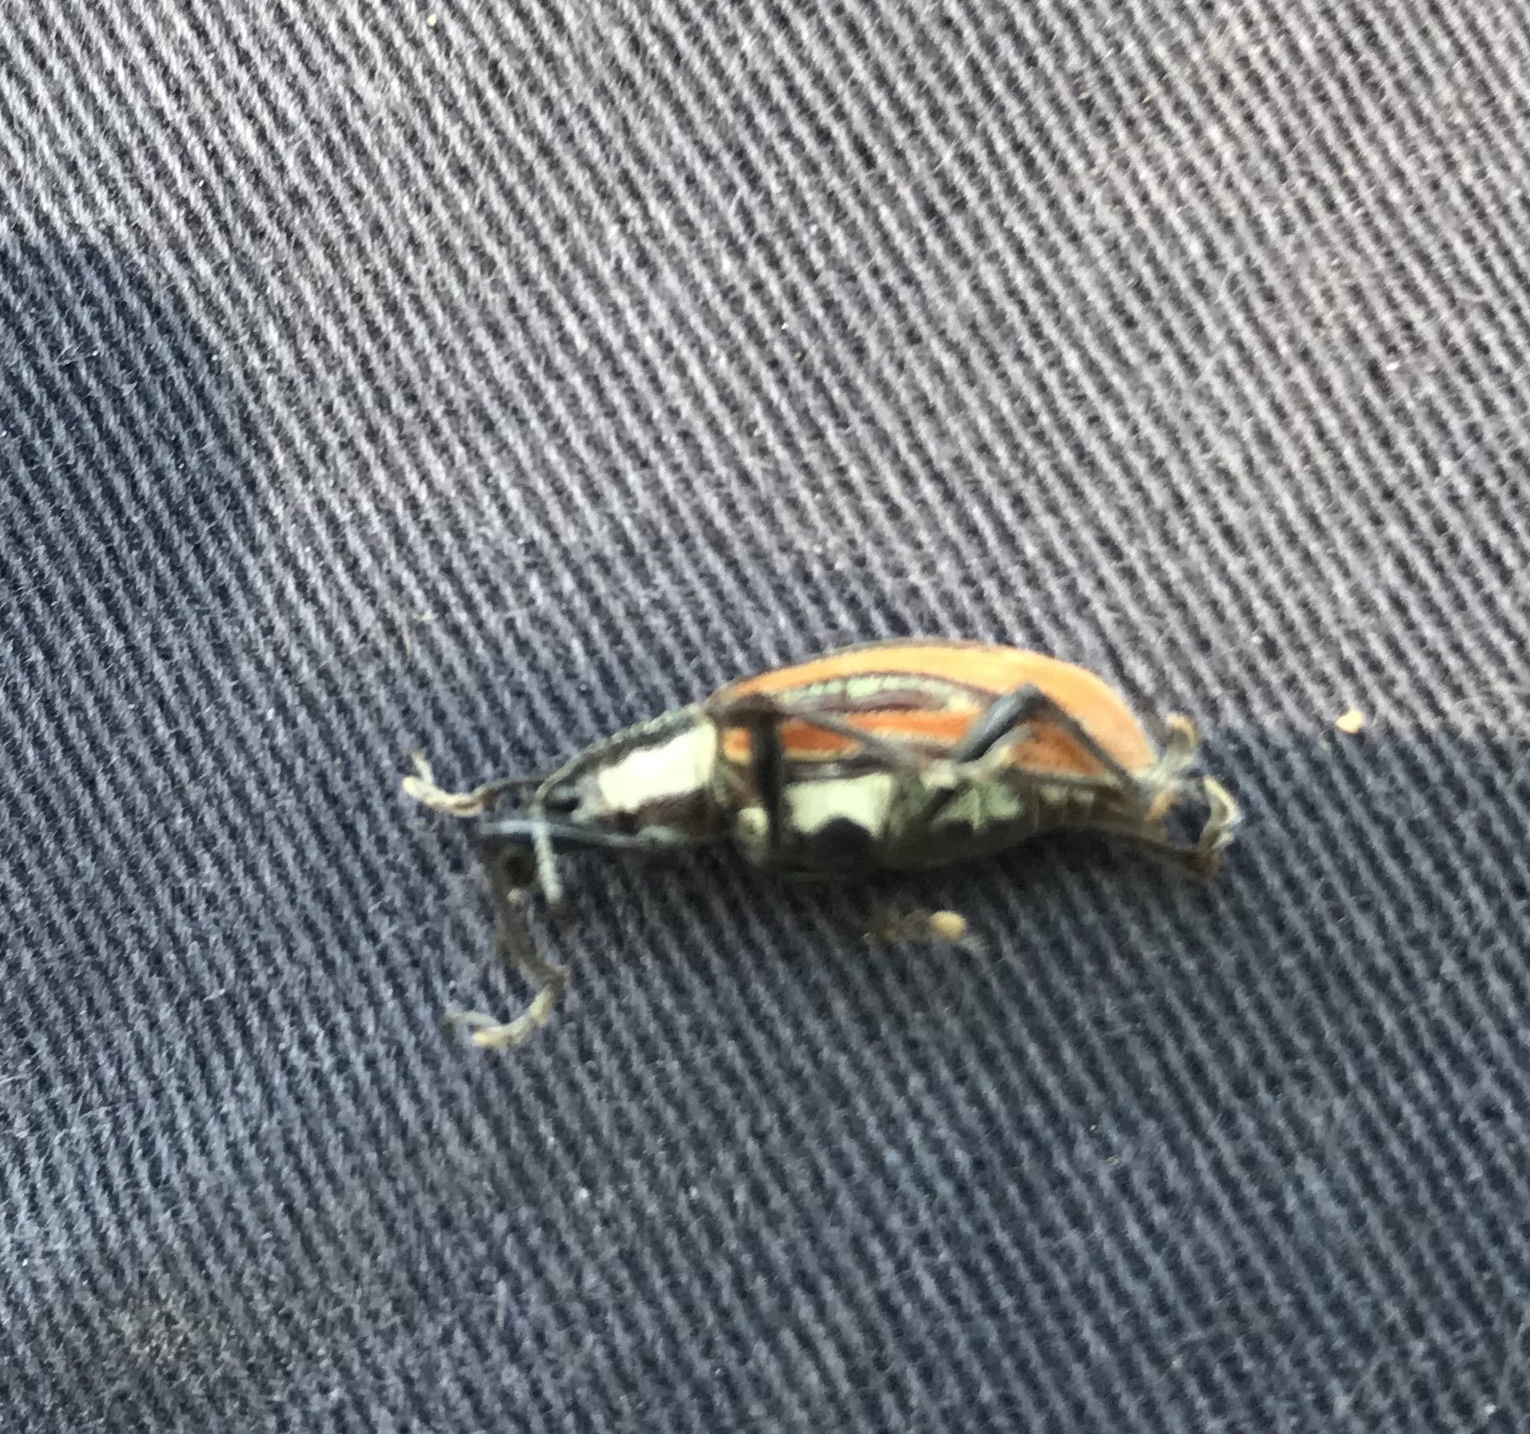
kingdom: Animalia
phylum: Arthropoda
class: Insecta
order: Coleoptera
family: Curculionidae
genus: Diaprepes
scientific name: Diaprepes abbreviatus
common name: Root weevil
